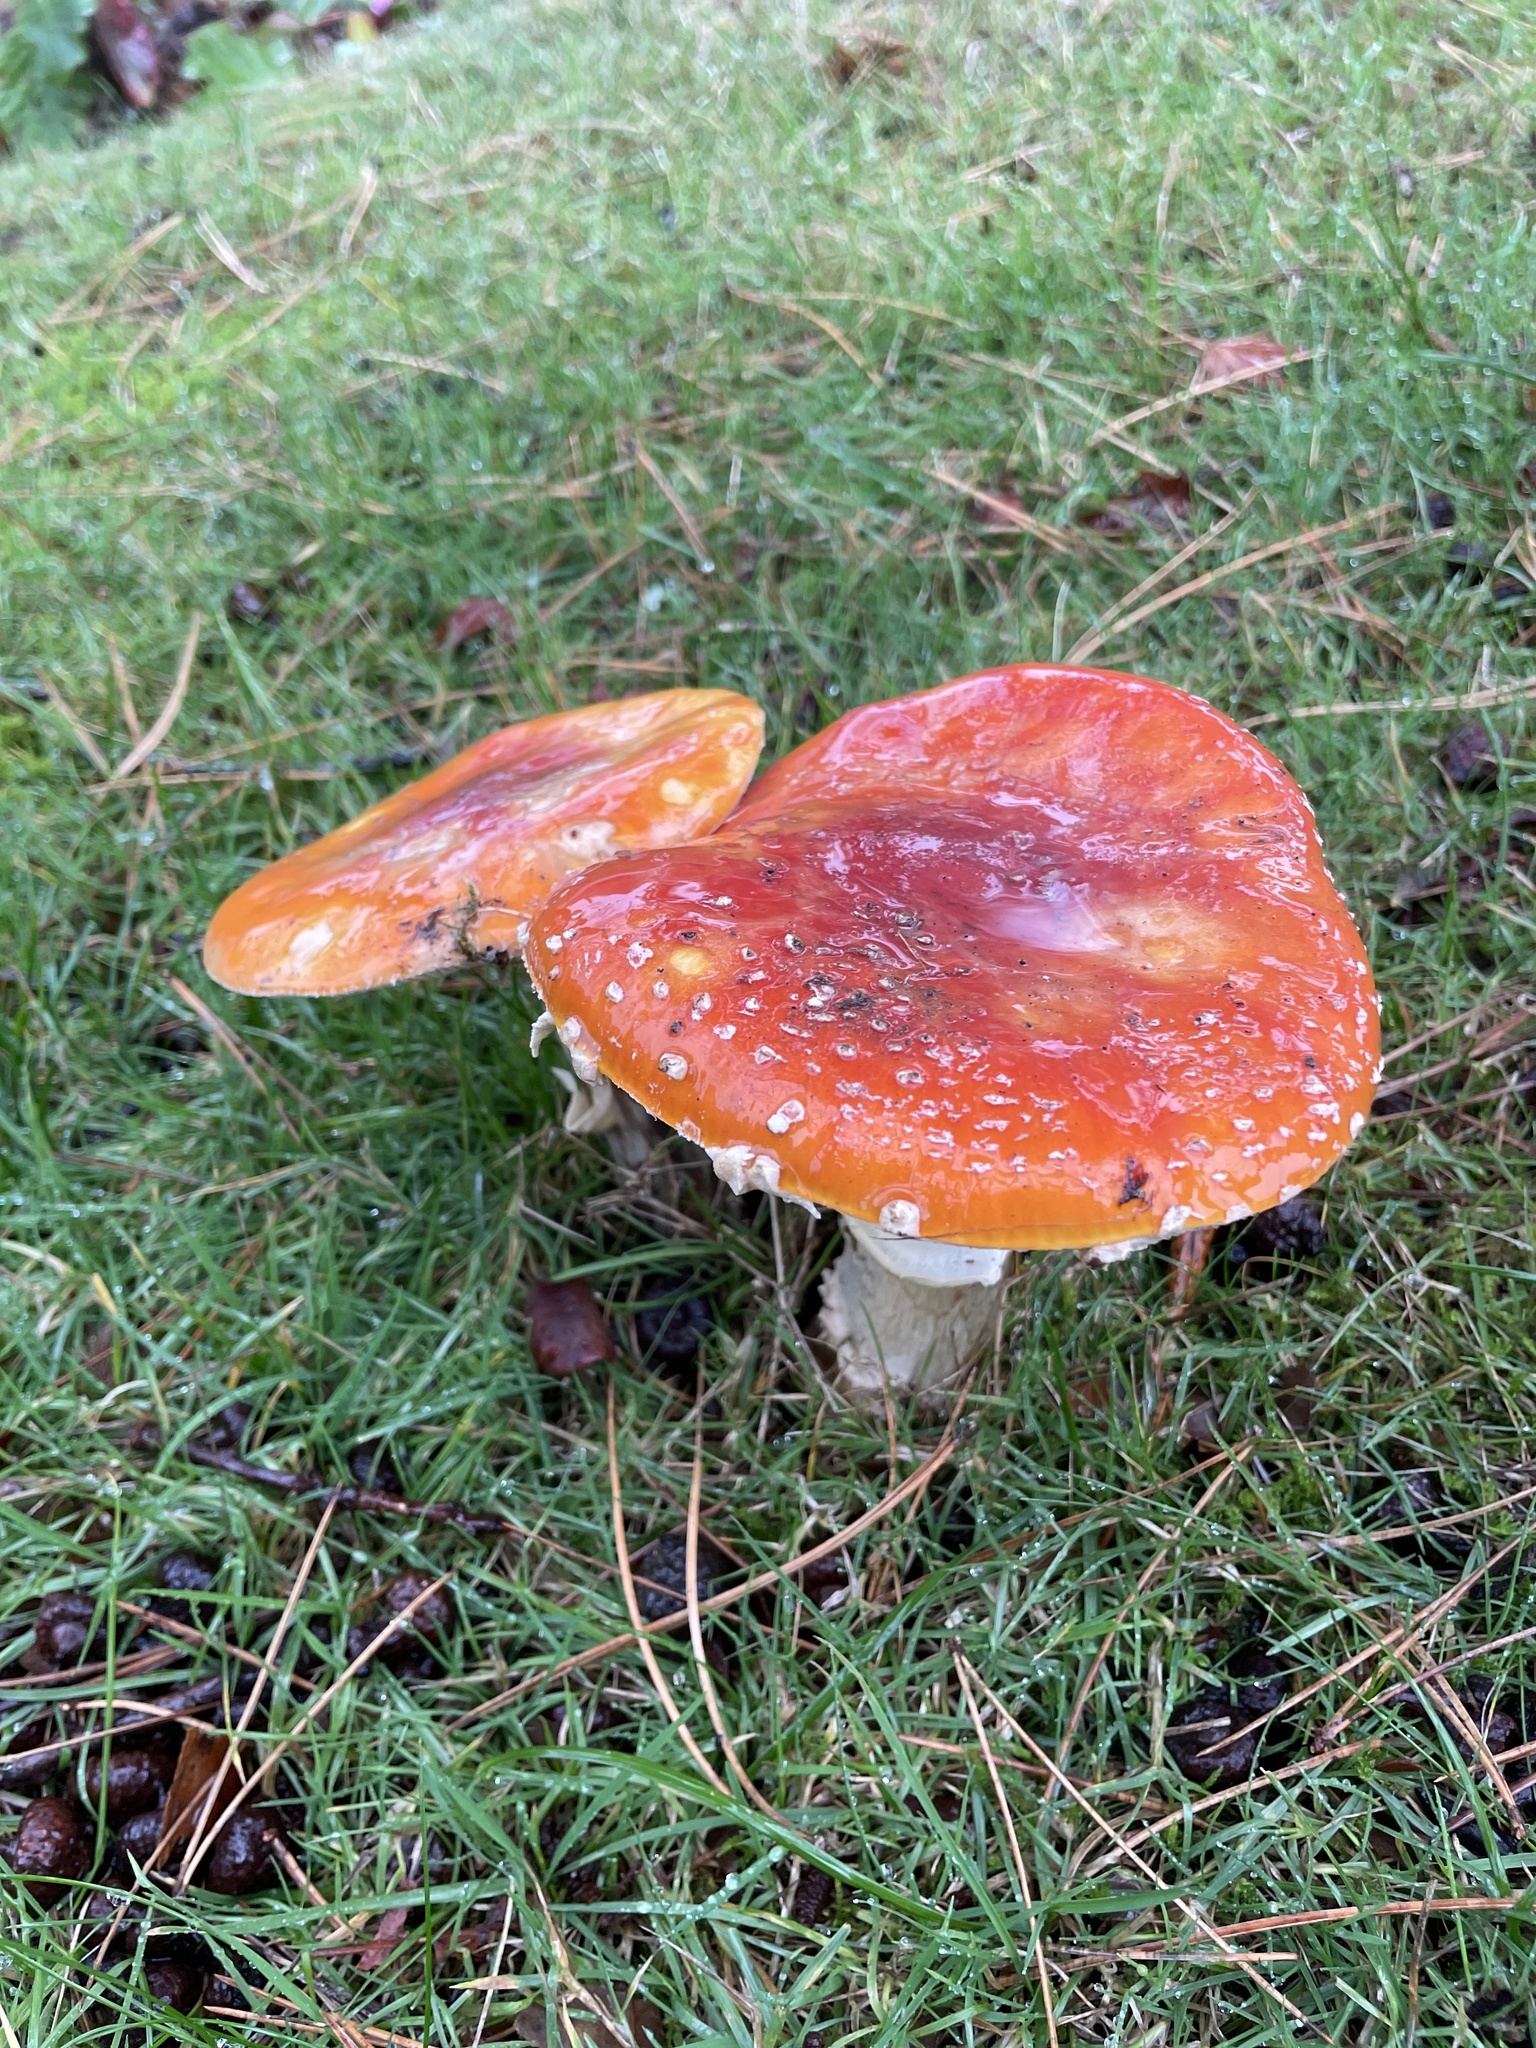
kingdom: Fungi
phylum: Basidiomycota
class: Agaricomycetes
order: Agaricales
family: Amanitaceae
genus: Amanita
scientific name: Amanita muscaria
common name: Fly agaric
